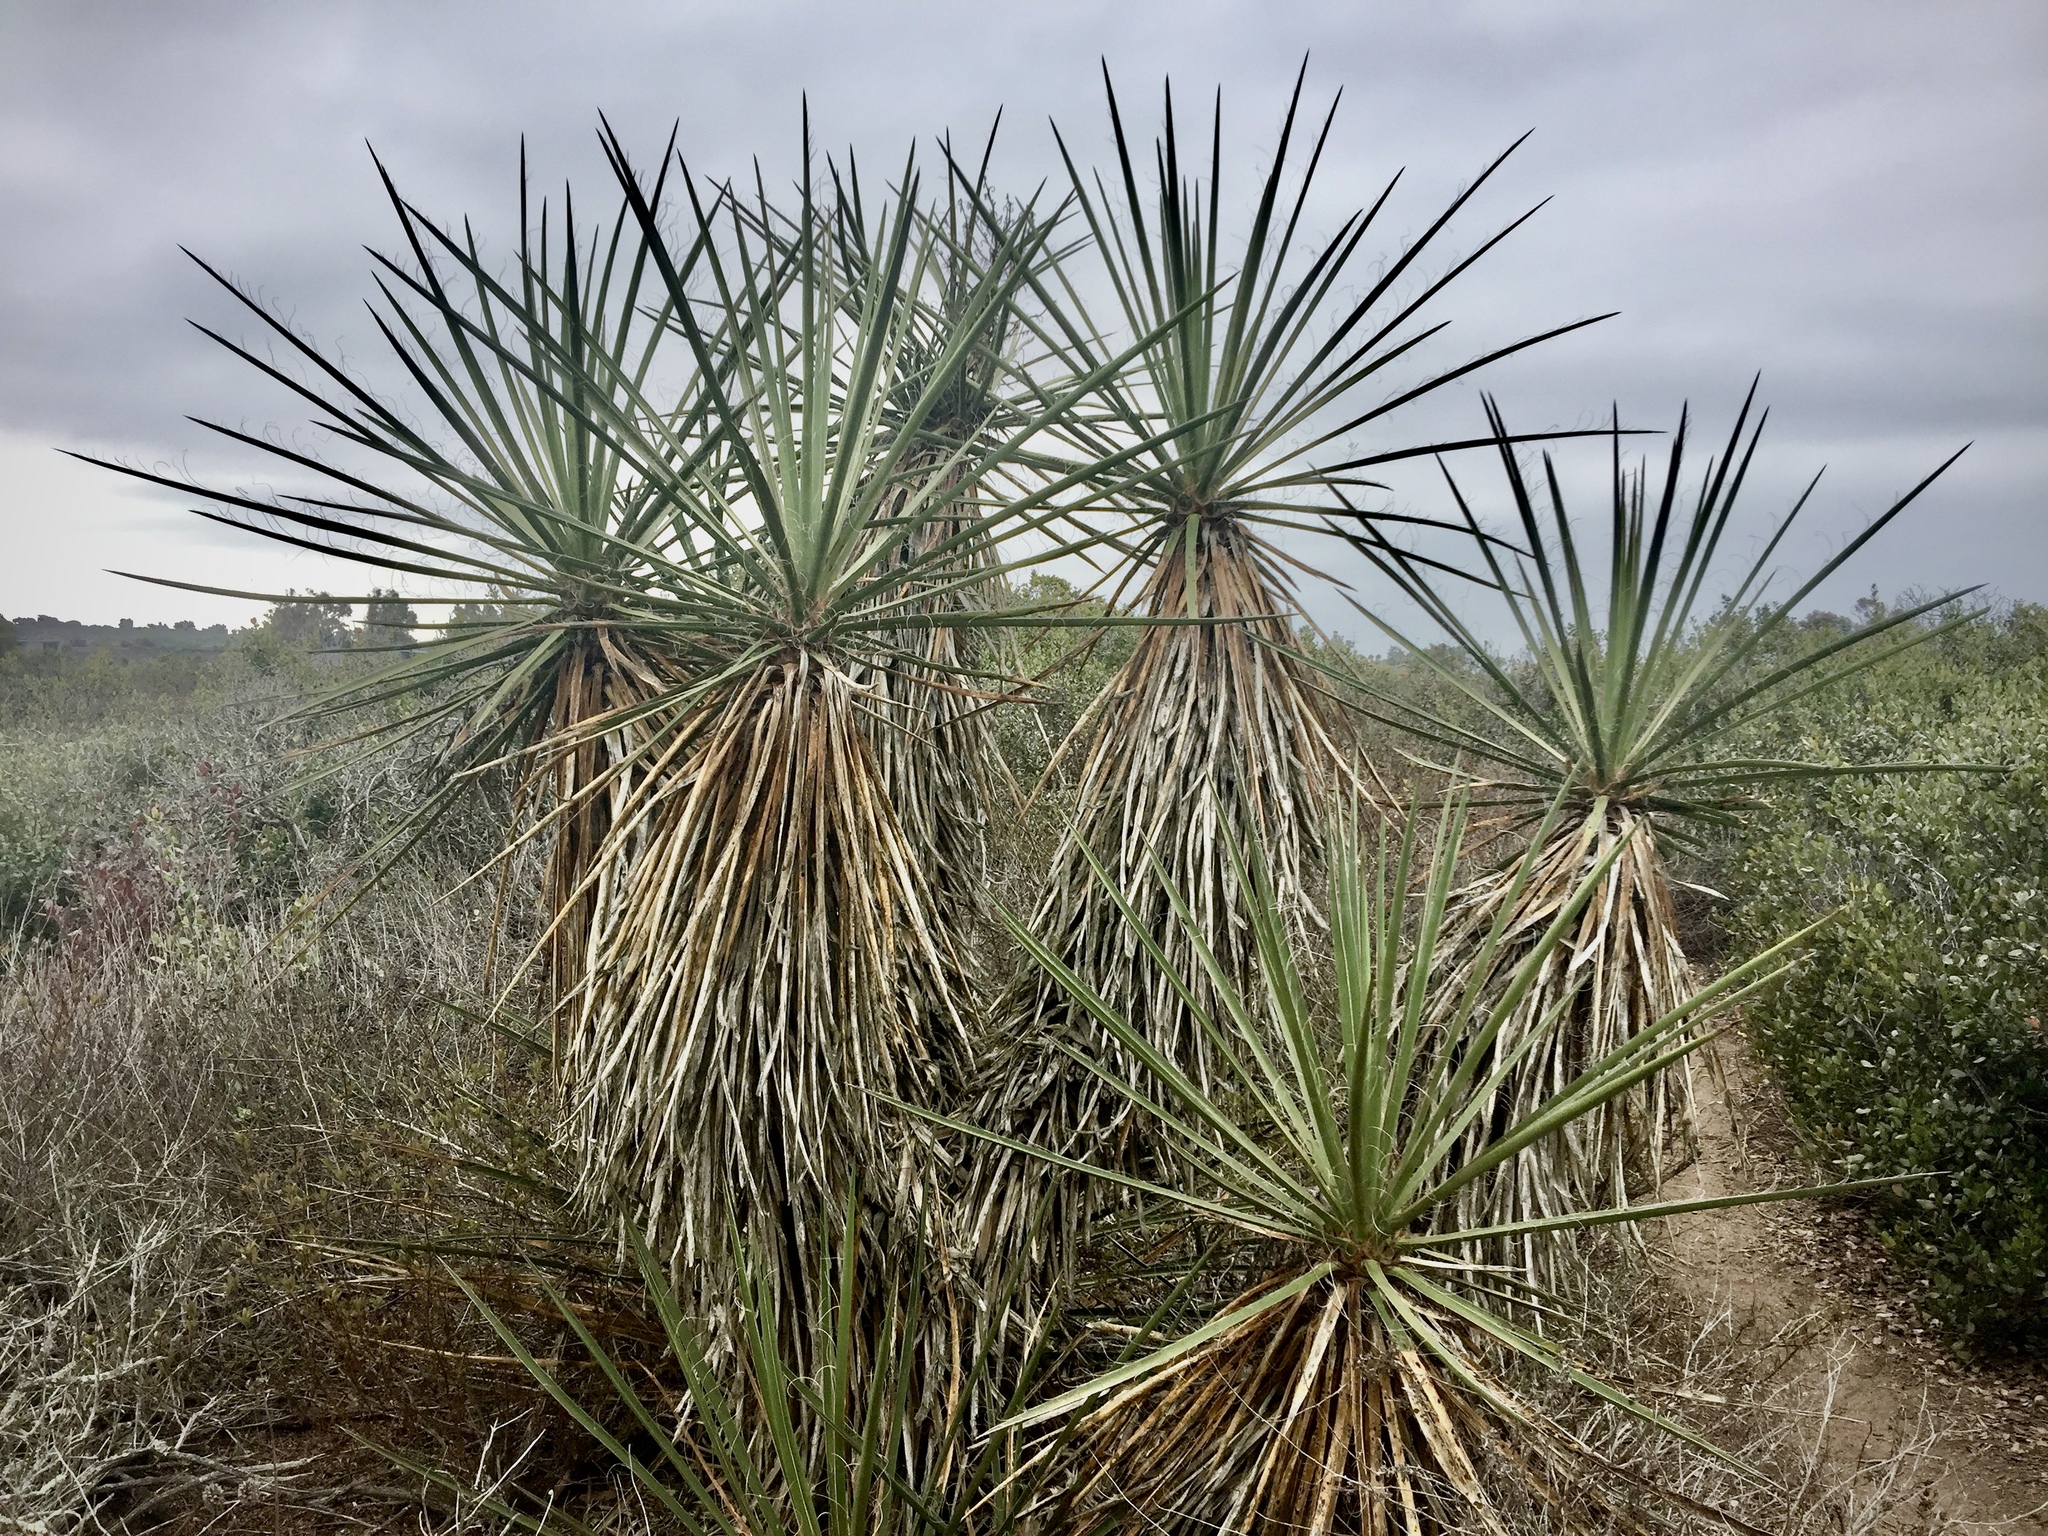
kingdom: Plantae
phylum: Tracheophyta
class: Liliopsida
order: Asparagales
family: Asparagaceae
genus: Yucca
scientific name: Yucca schidigera
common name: Mojave yucca
